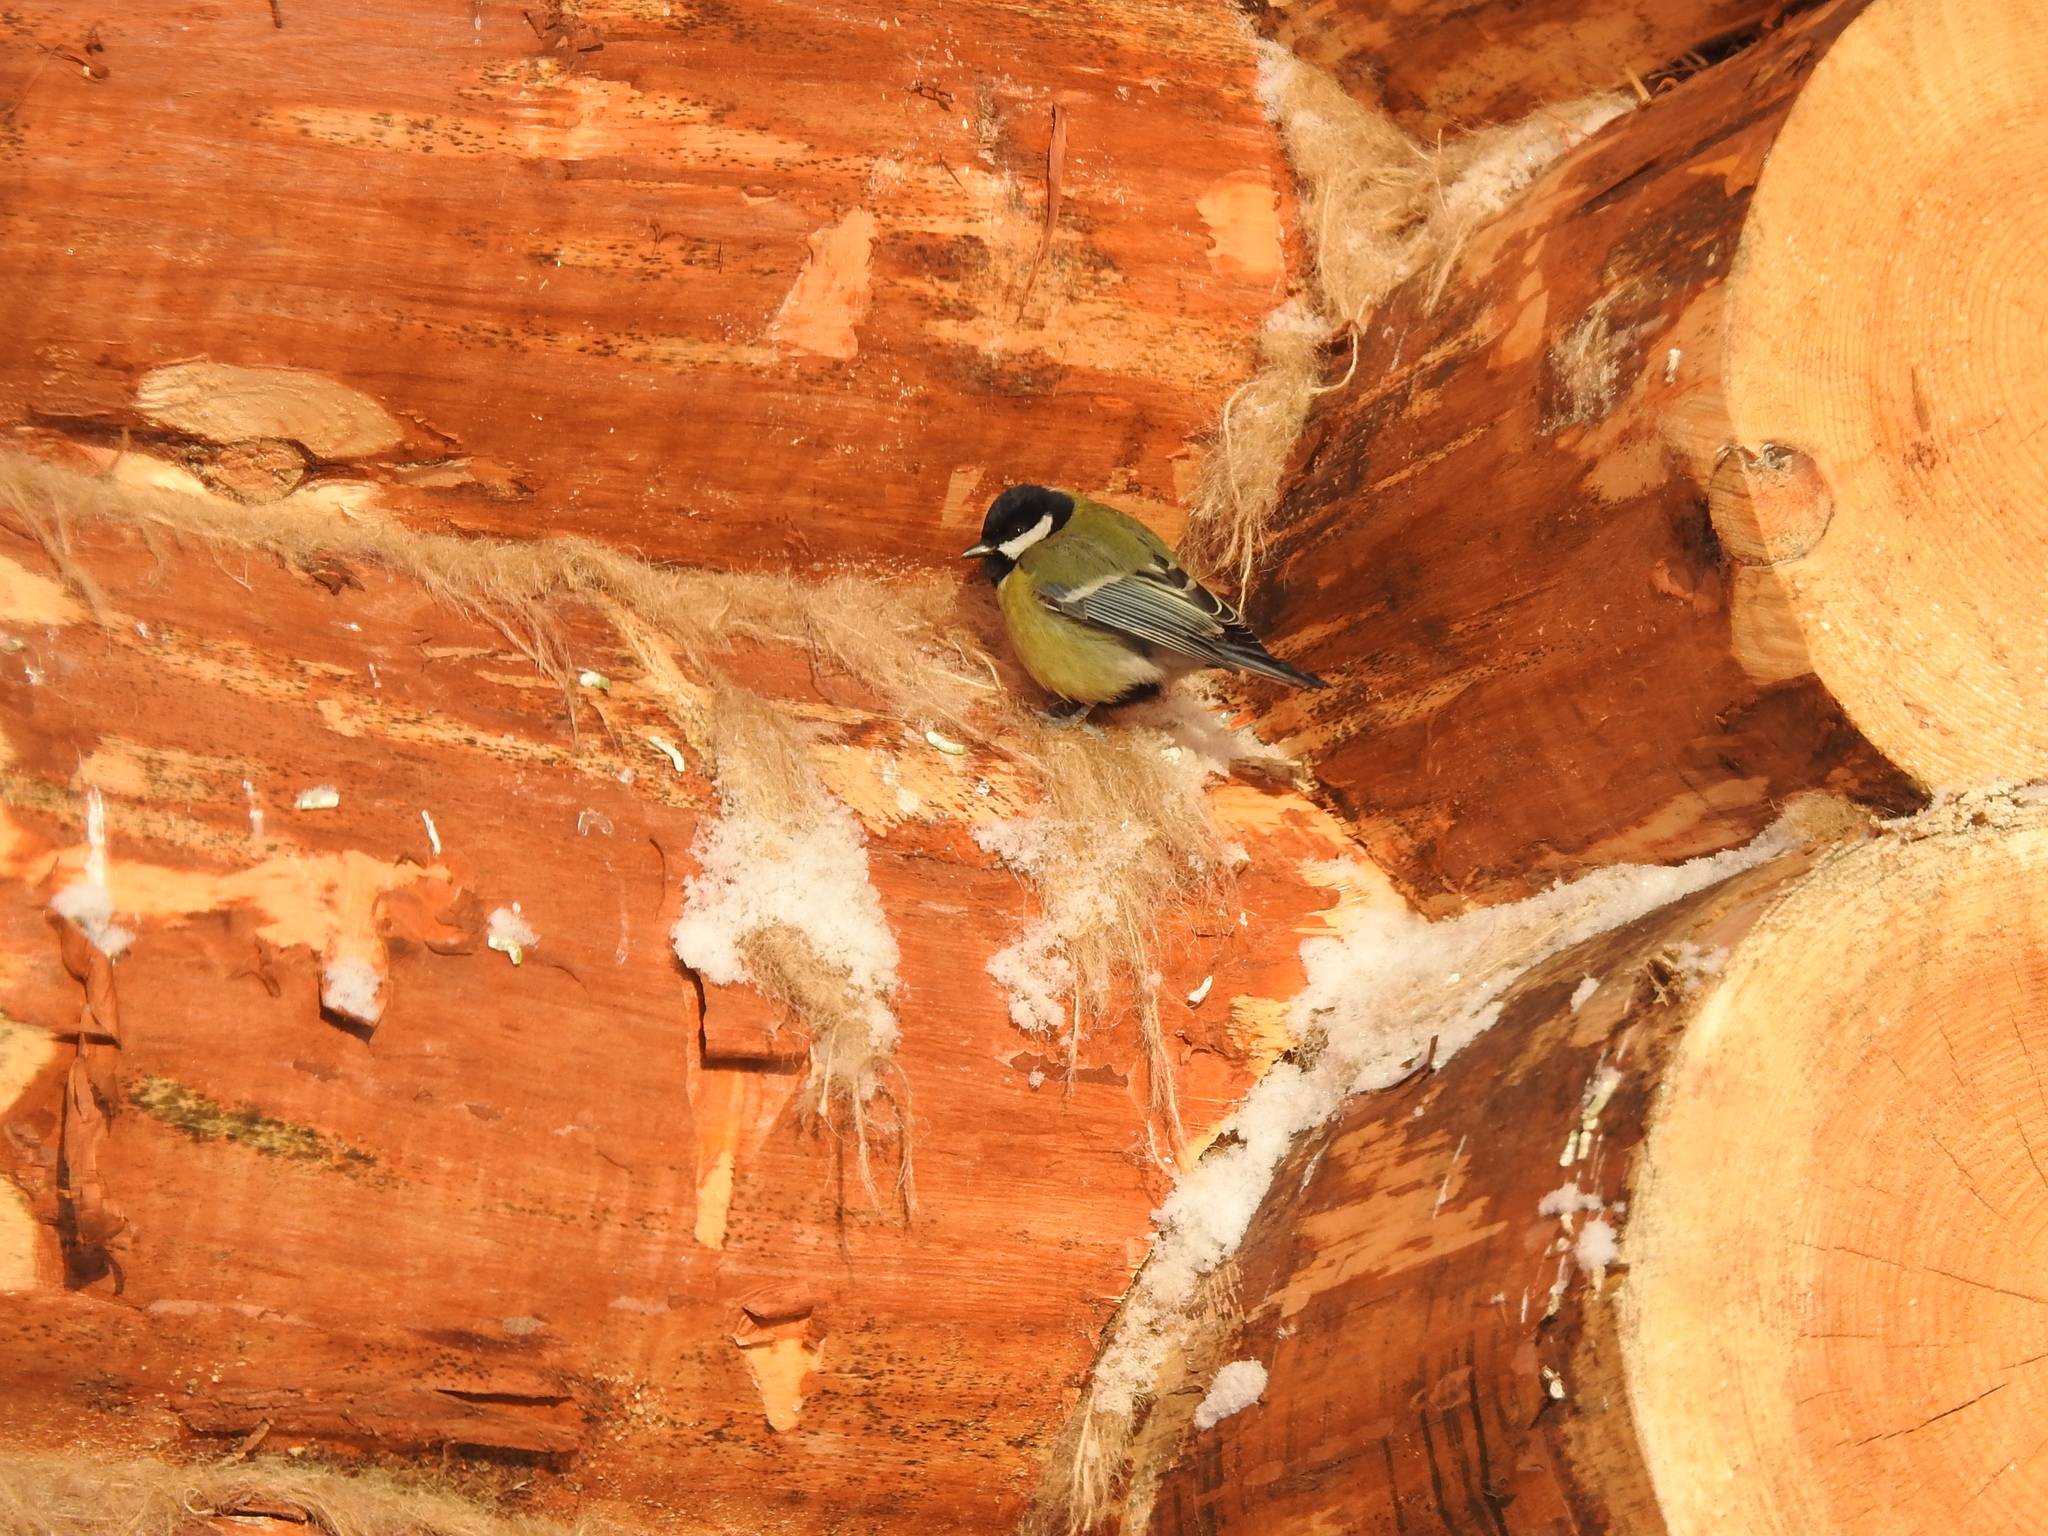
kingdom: Animalia
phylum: Chordata
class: Aves
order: Passeriformes
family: Paridae
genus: Parus
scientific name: Parus major
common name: Great tit
